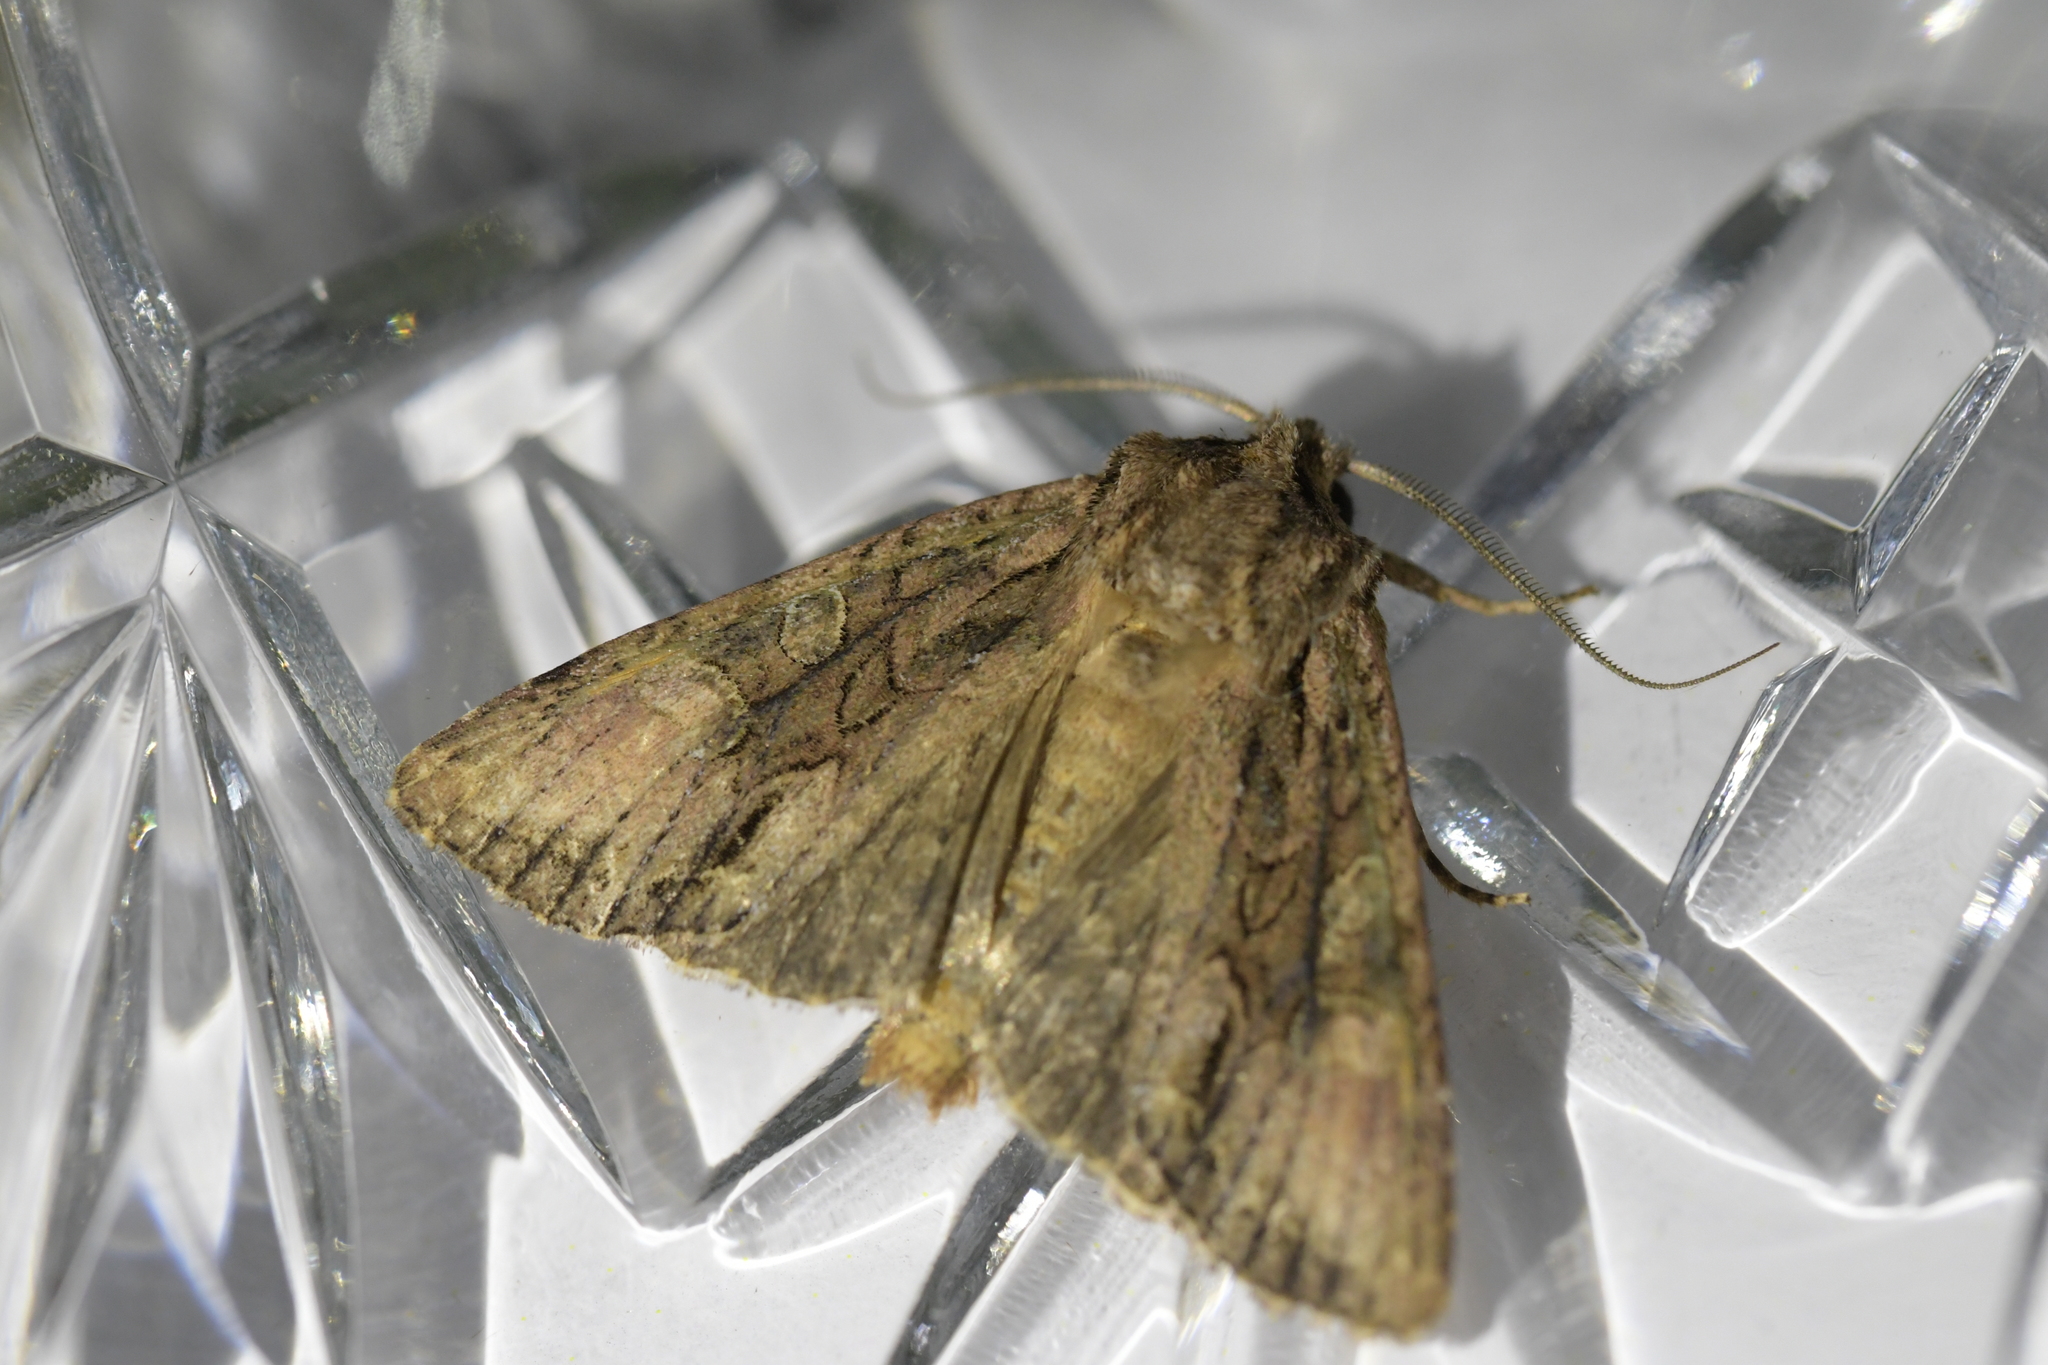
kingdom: Animalia
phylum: Arthropoda
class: Insecta
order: Lepidoptera
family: Noctuidae
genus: Ichneutica
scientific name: Ichneutica mutans
